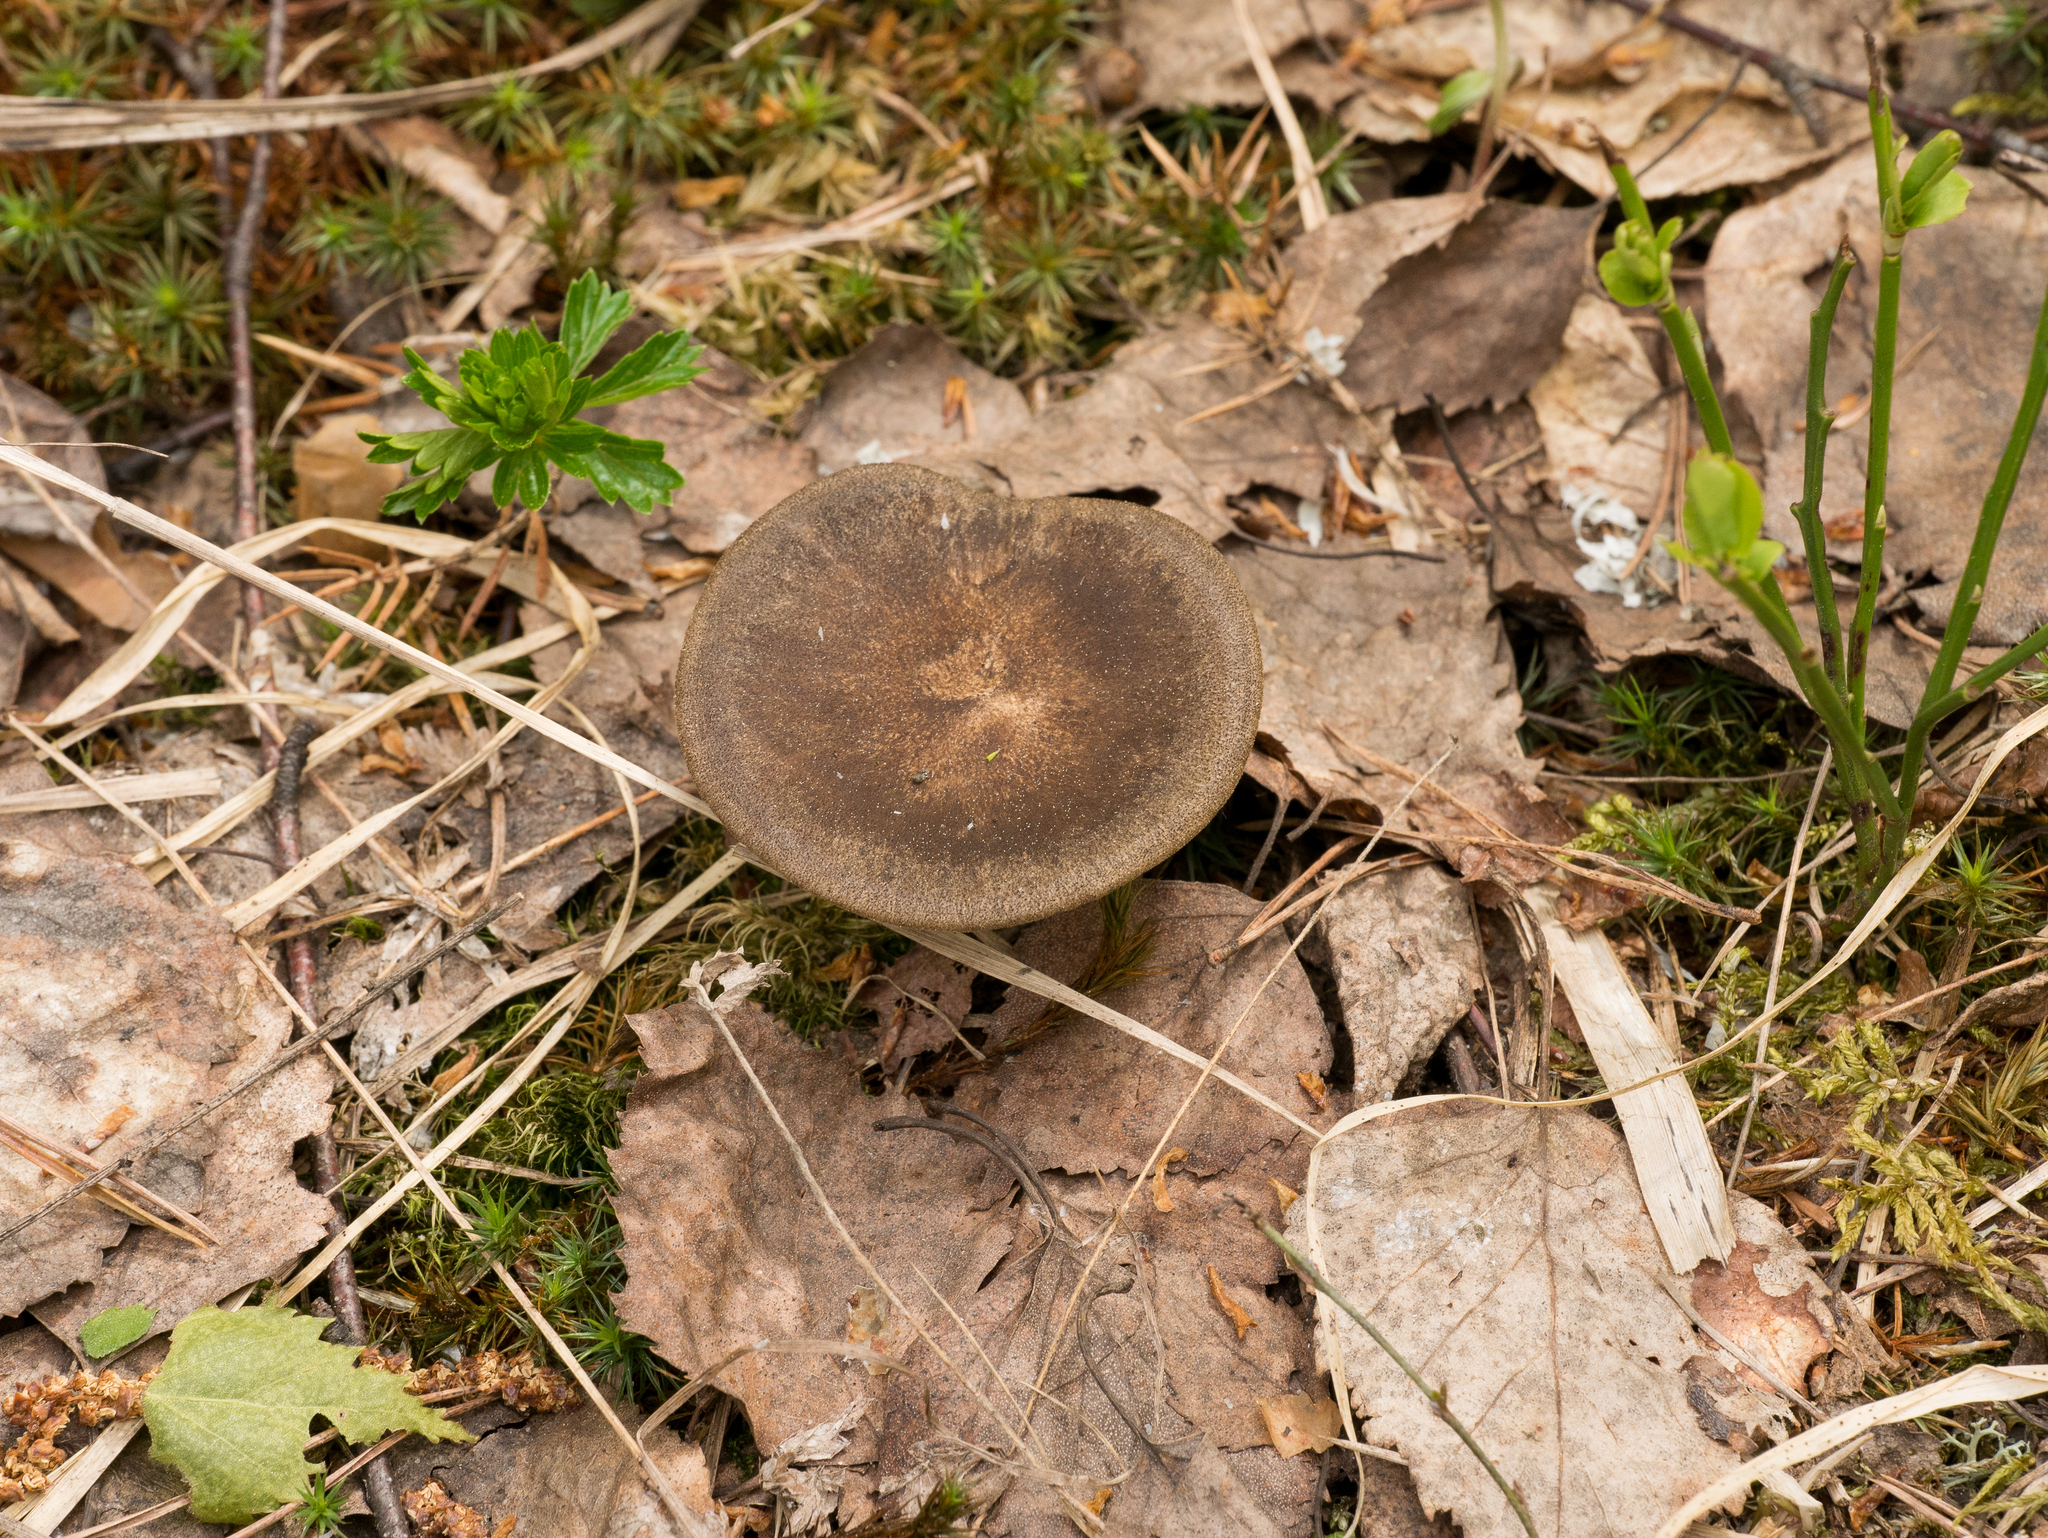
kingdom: Fungi
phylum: Basidiomycota
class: Agaricomycetes
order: Polyporales
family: Polyporaceae
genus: Lentinus
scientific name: Lentinus substrictus
